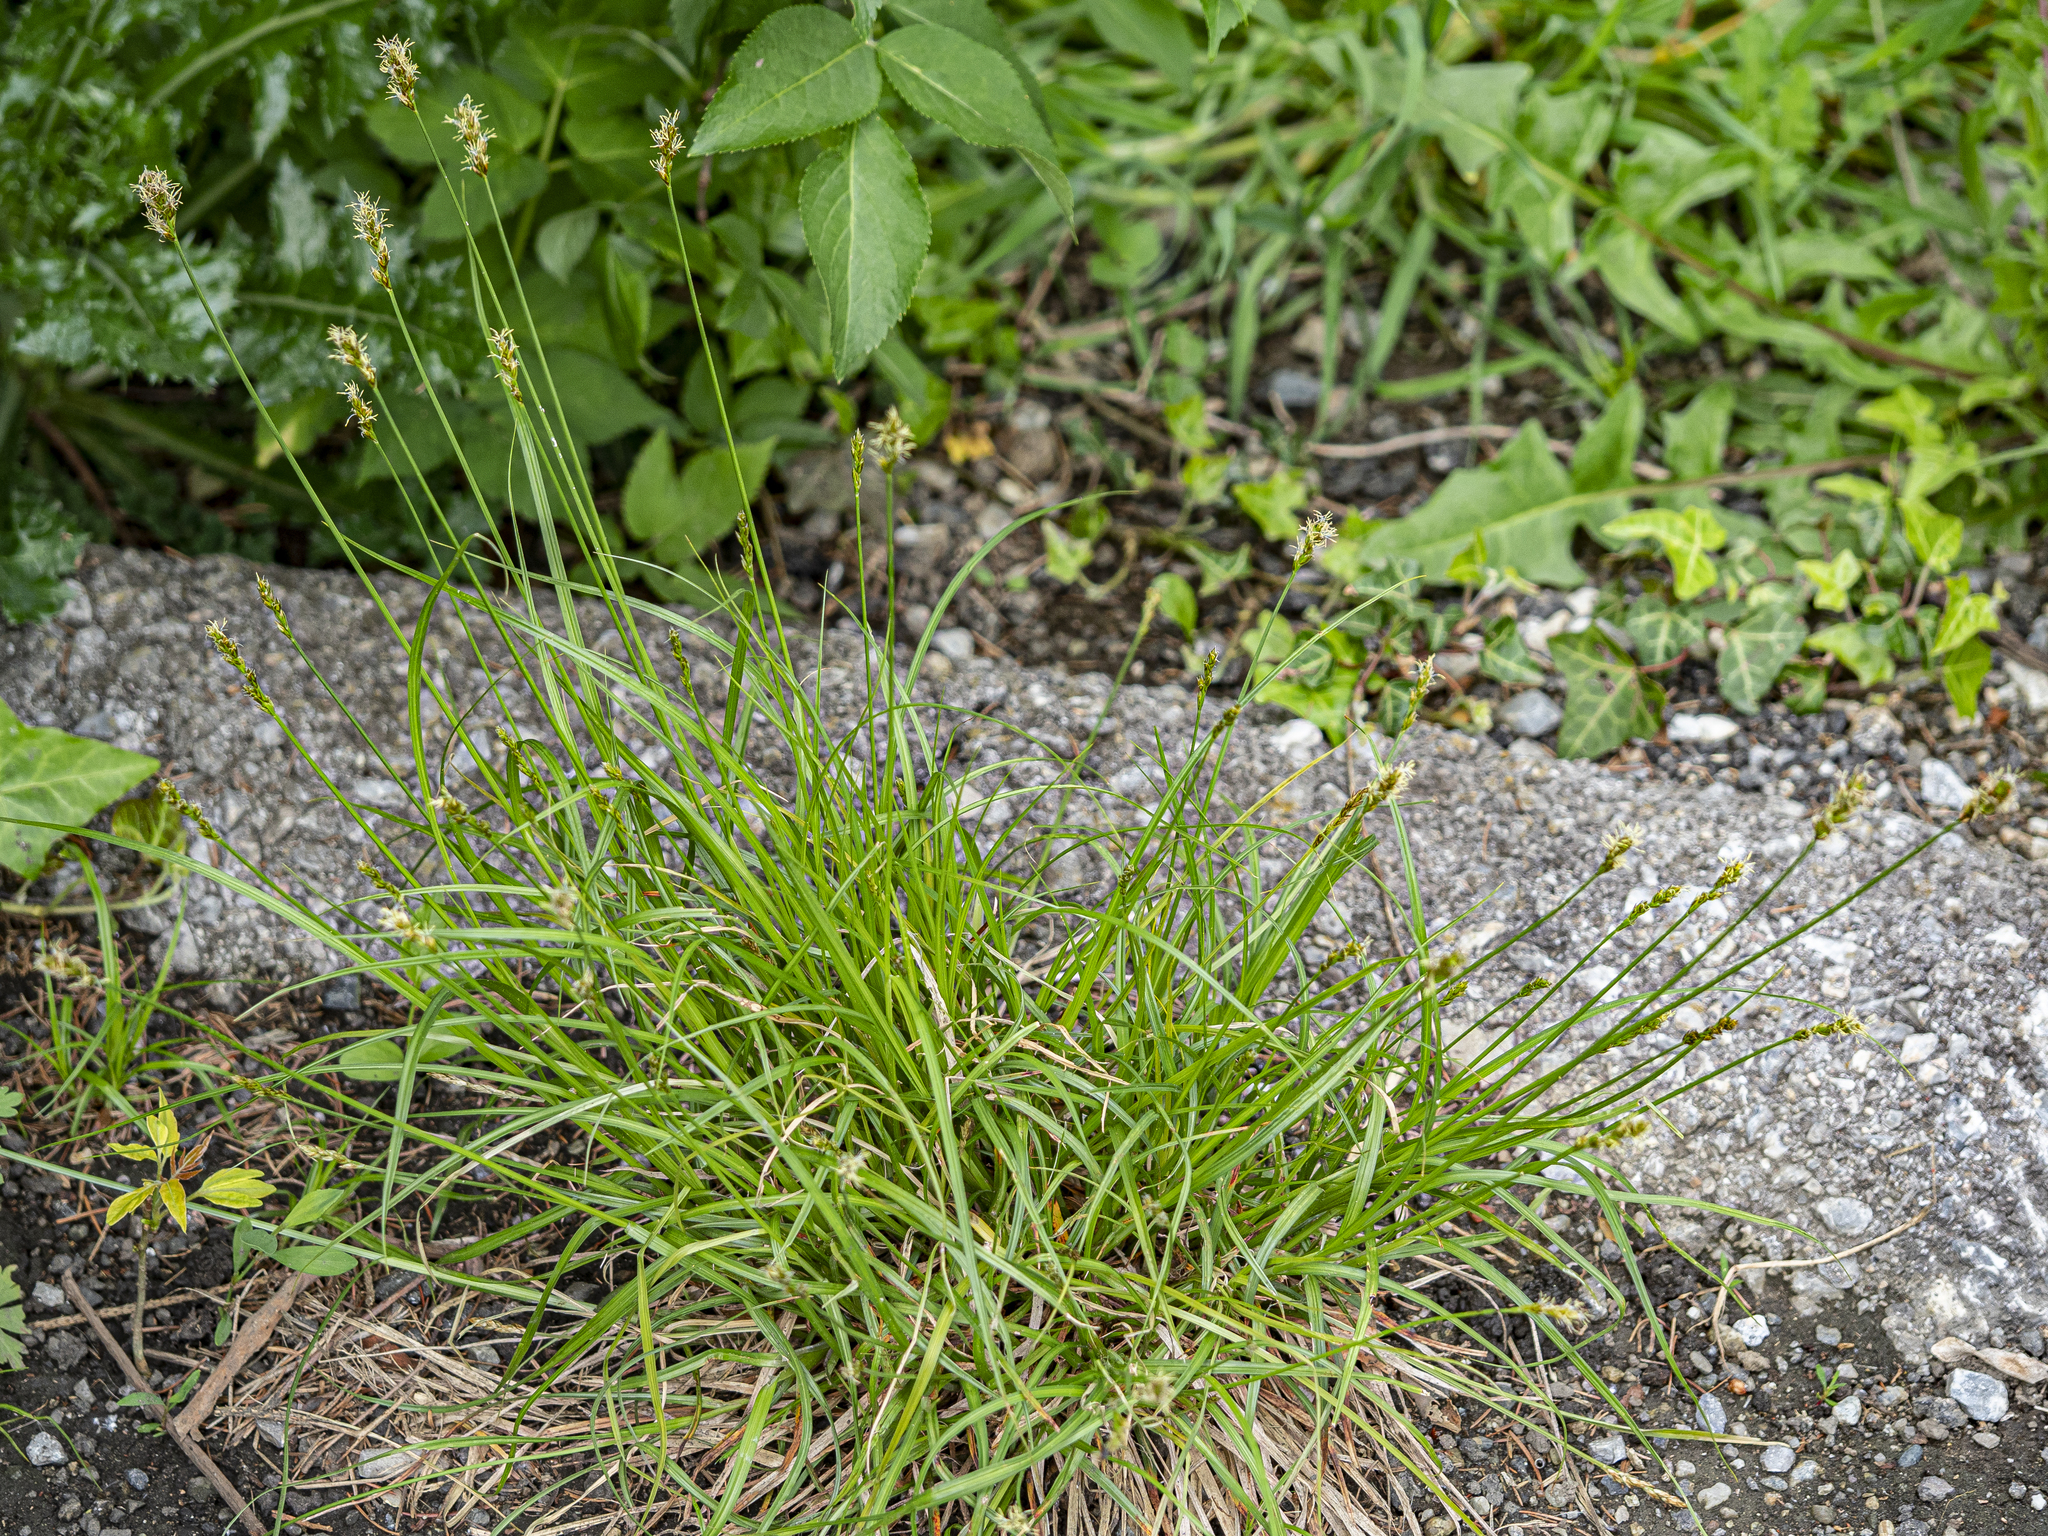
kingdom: Plantae
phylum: Tracheophyta
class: Liliopsida
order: Poales
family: Cyperaceae
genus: Carex
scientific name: Carex spicata
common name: Spiked sedge
